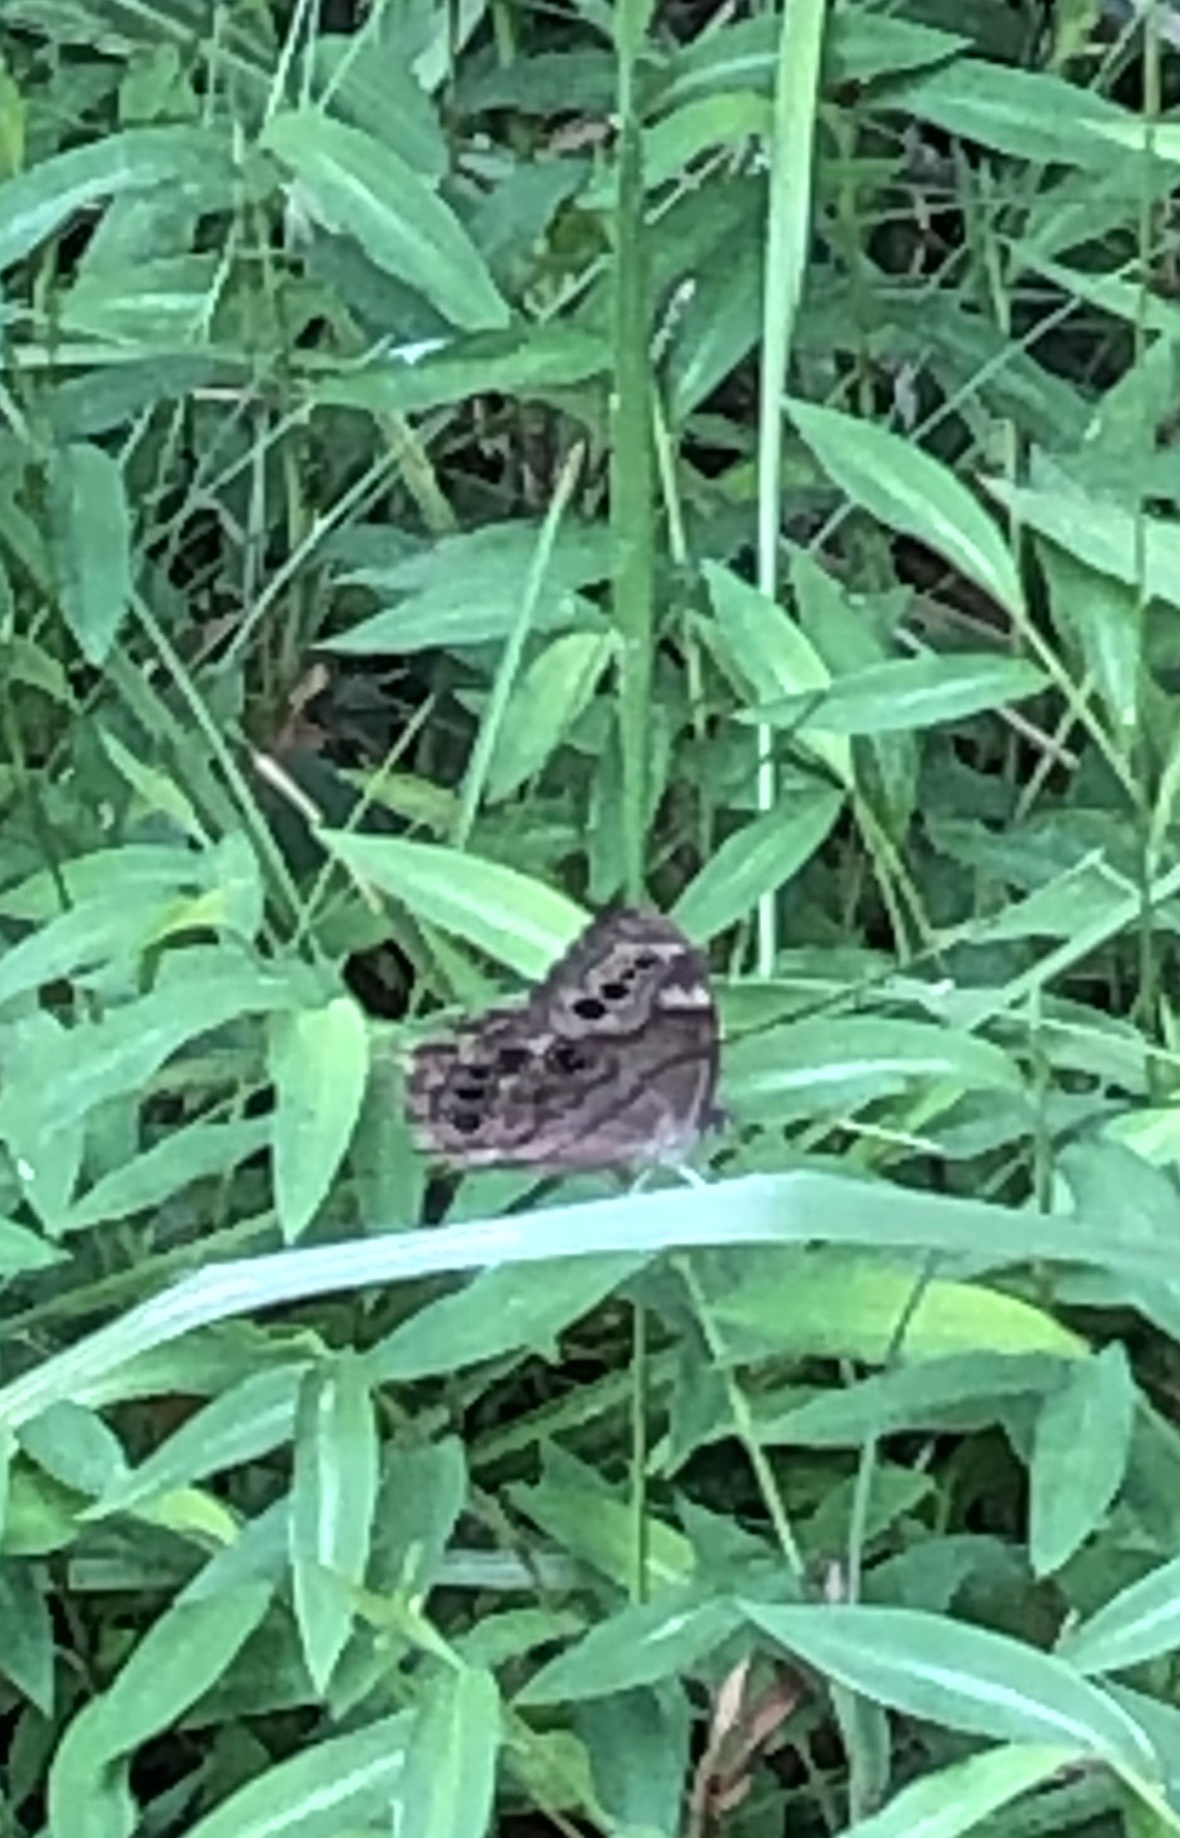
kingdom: Animalia
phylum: Arthropoda
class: Insecta
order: Lepidoptera
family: Nymphalidae
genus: Lethe
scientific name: Lethe anthedon
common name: Northern pearly-eye
